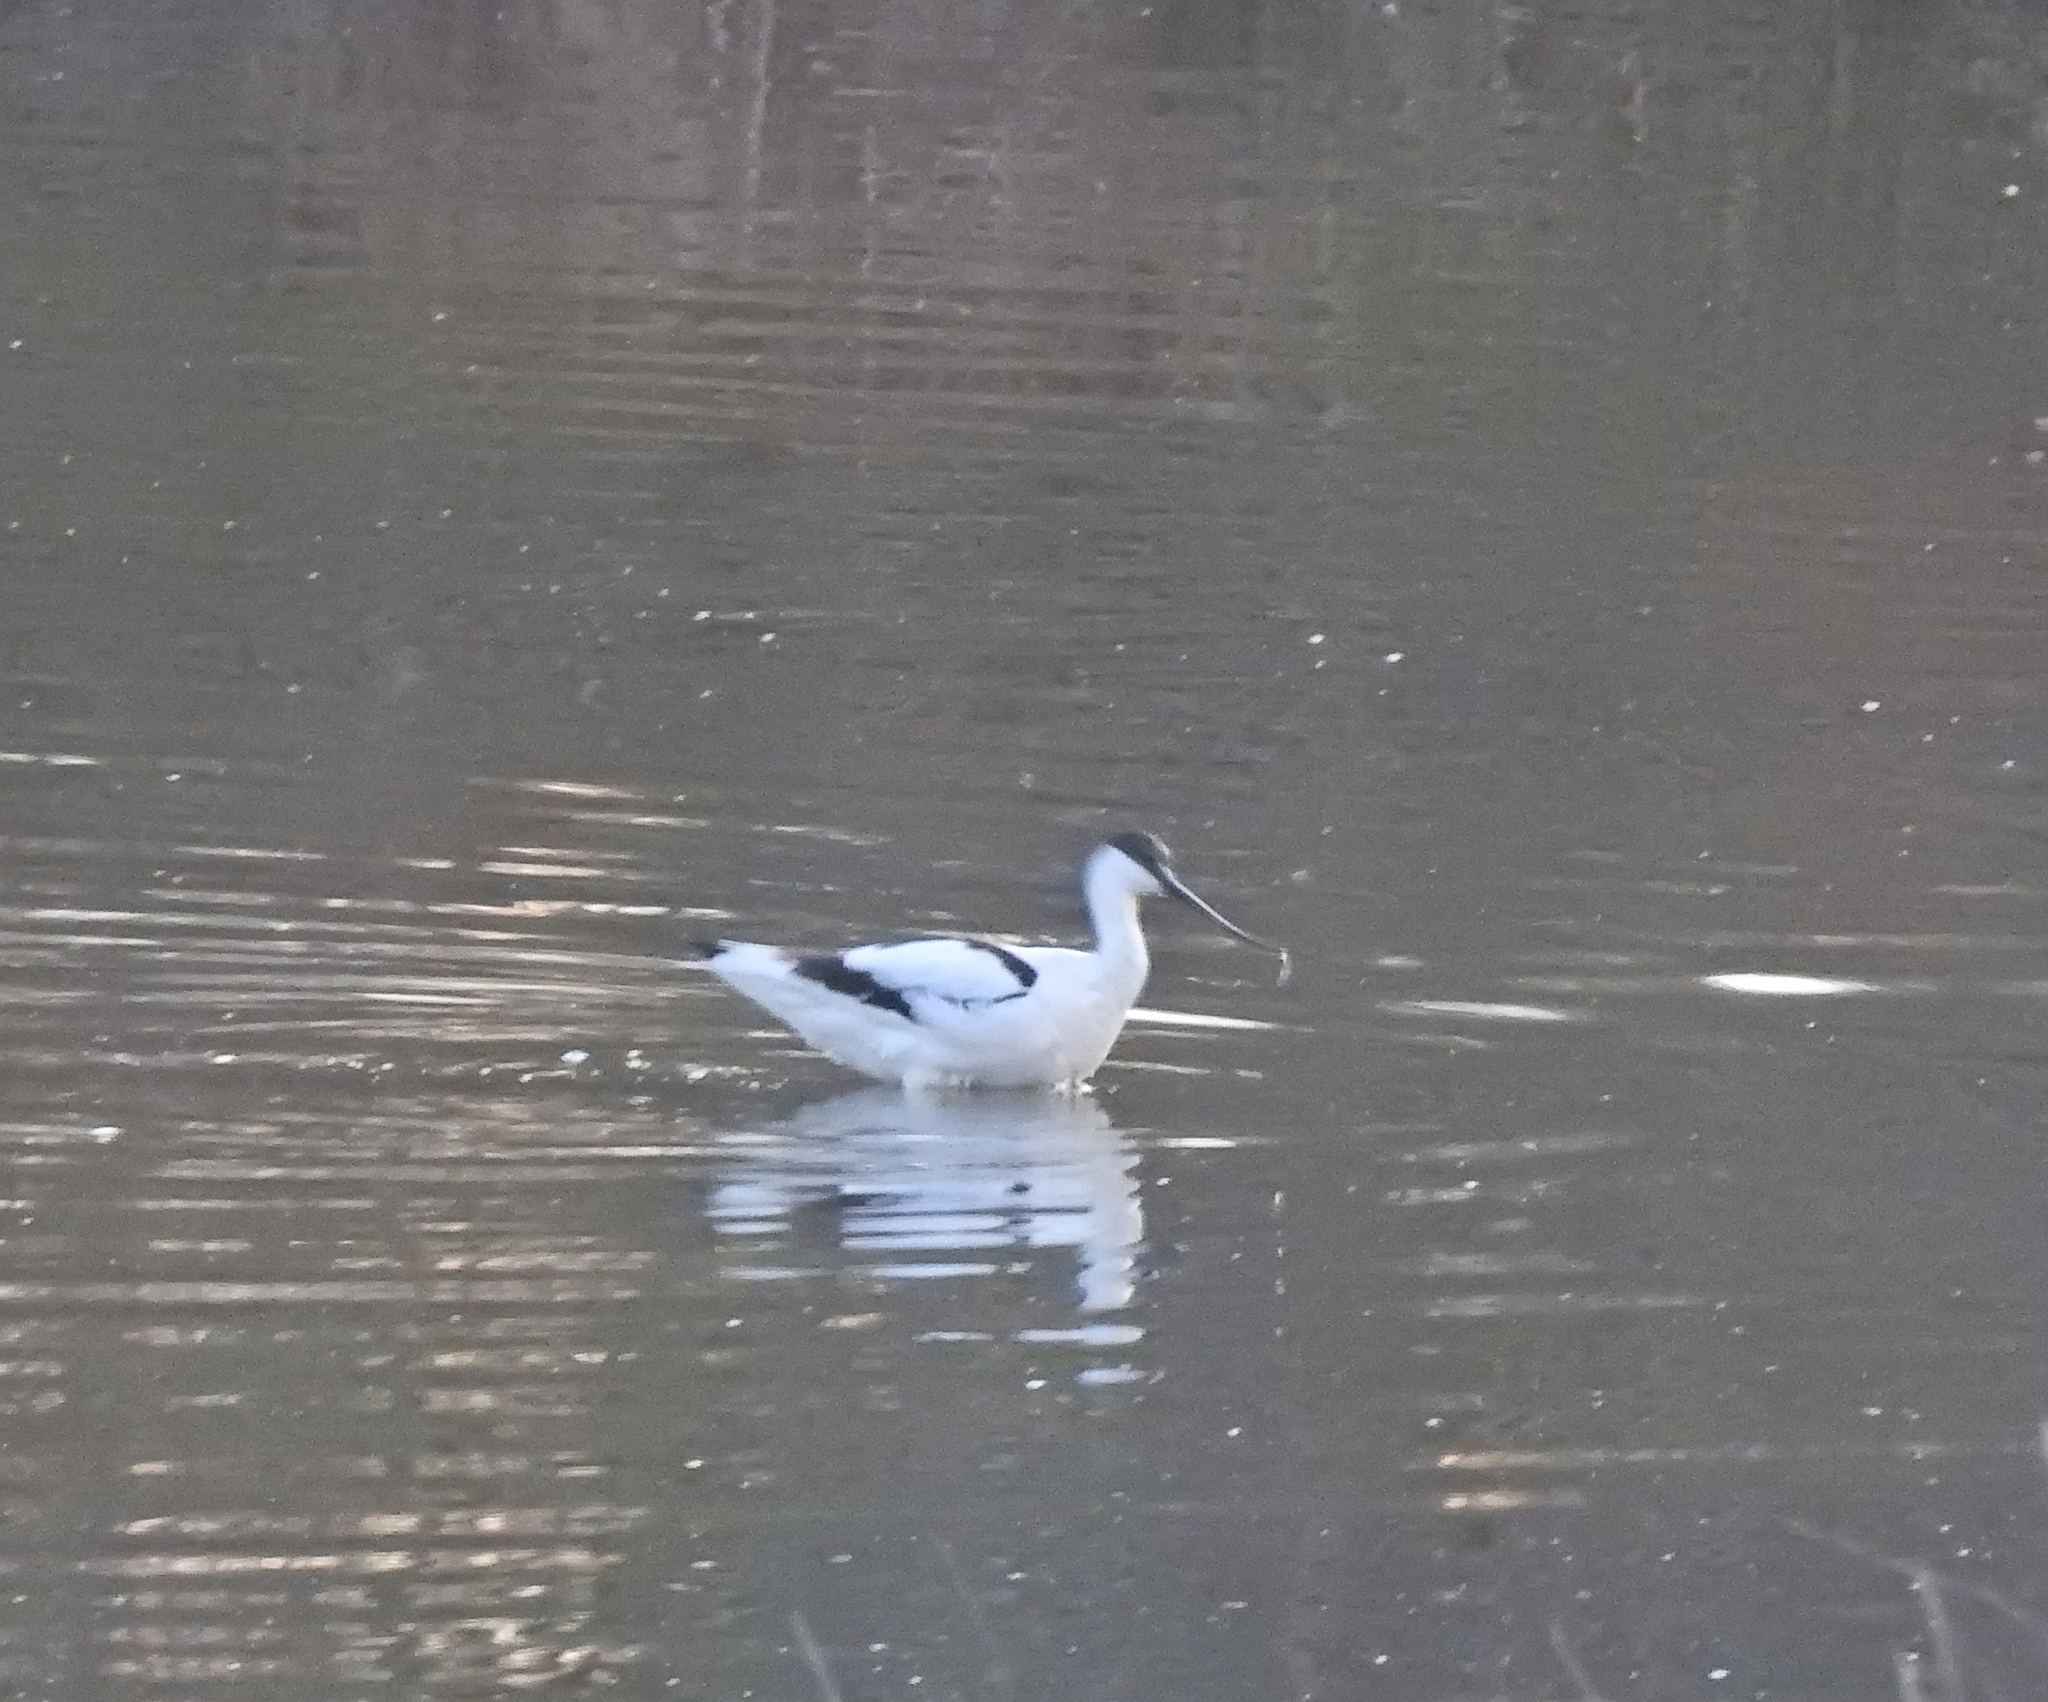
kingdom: Animalia
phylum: Chordata
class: Aves
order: Charadriiformes
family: Recurvirostridae
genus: Recurvirostra
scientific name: Recurvirostra avosetta
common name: Pied avocet
